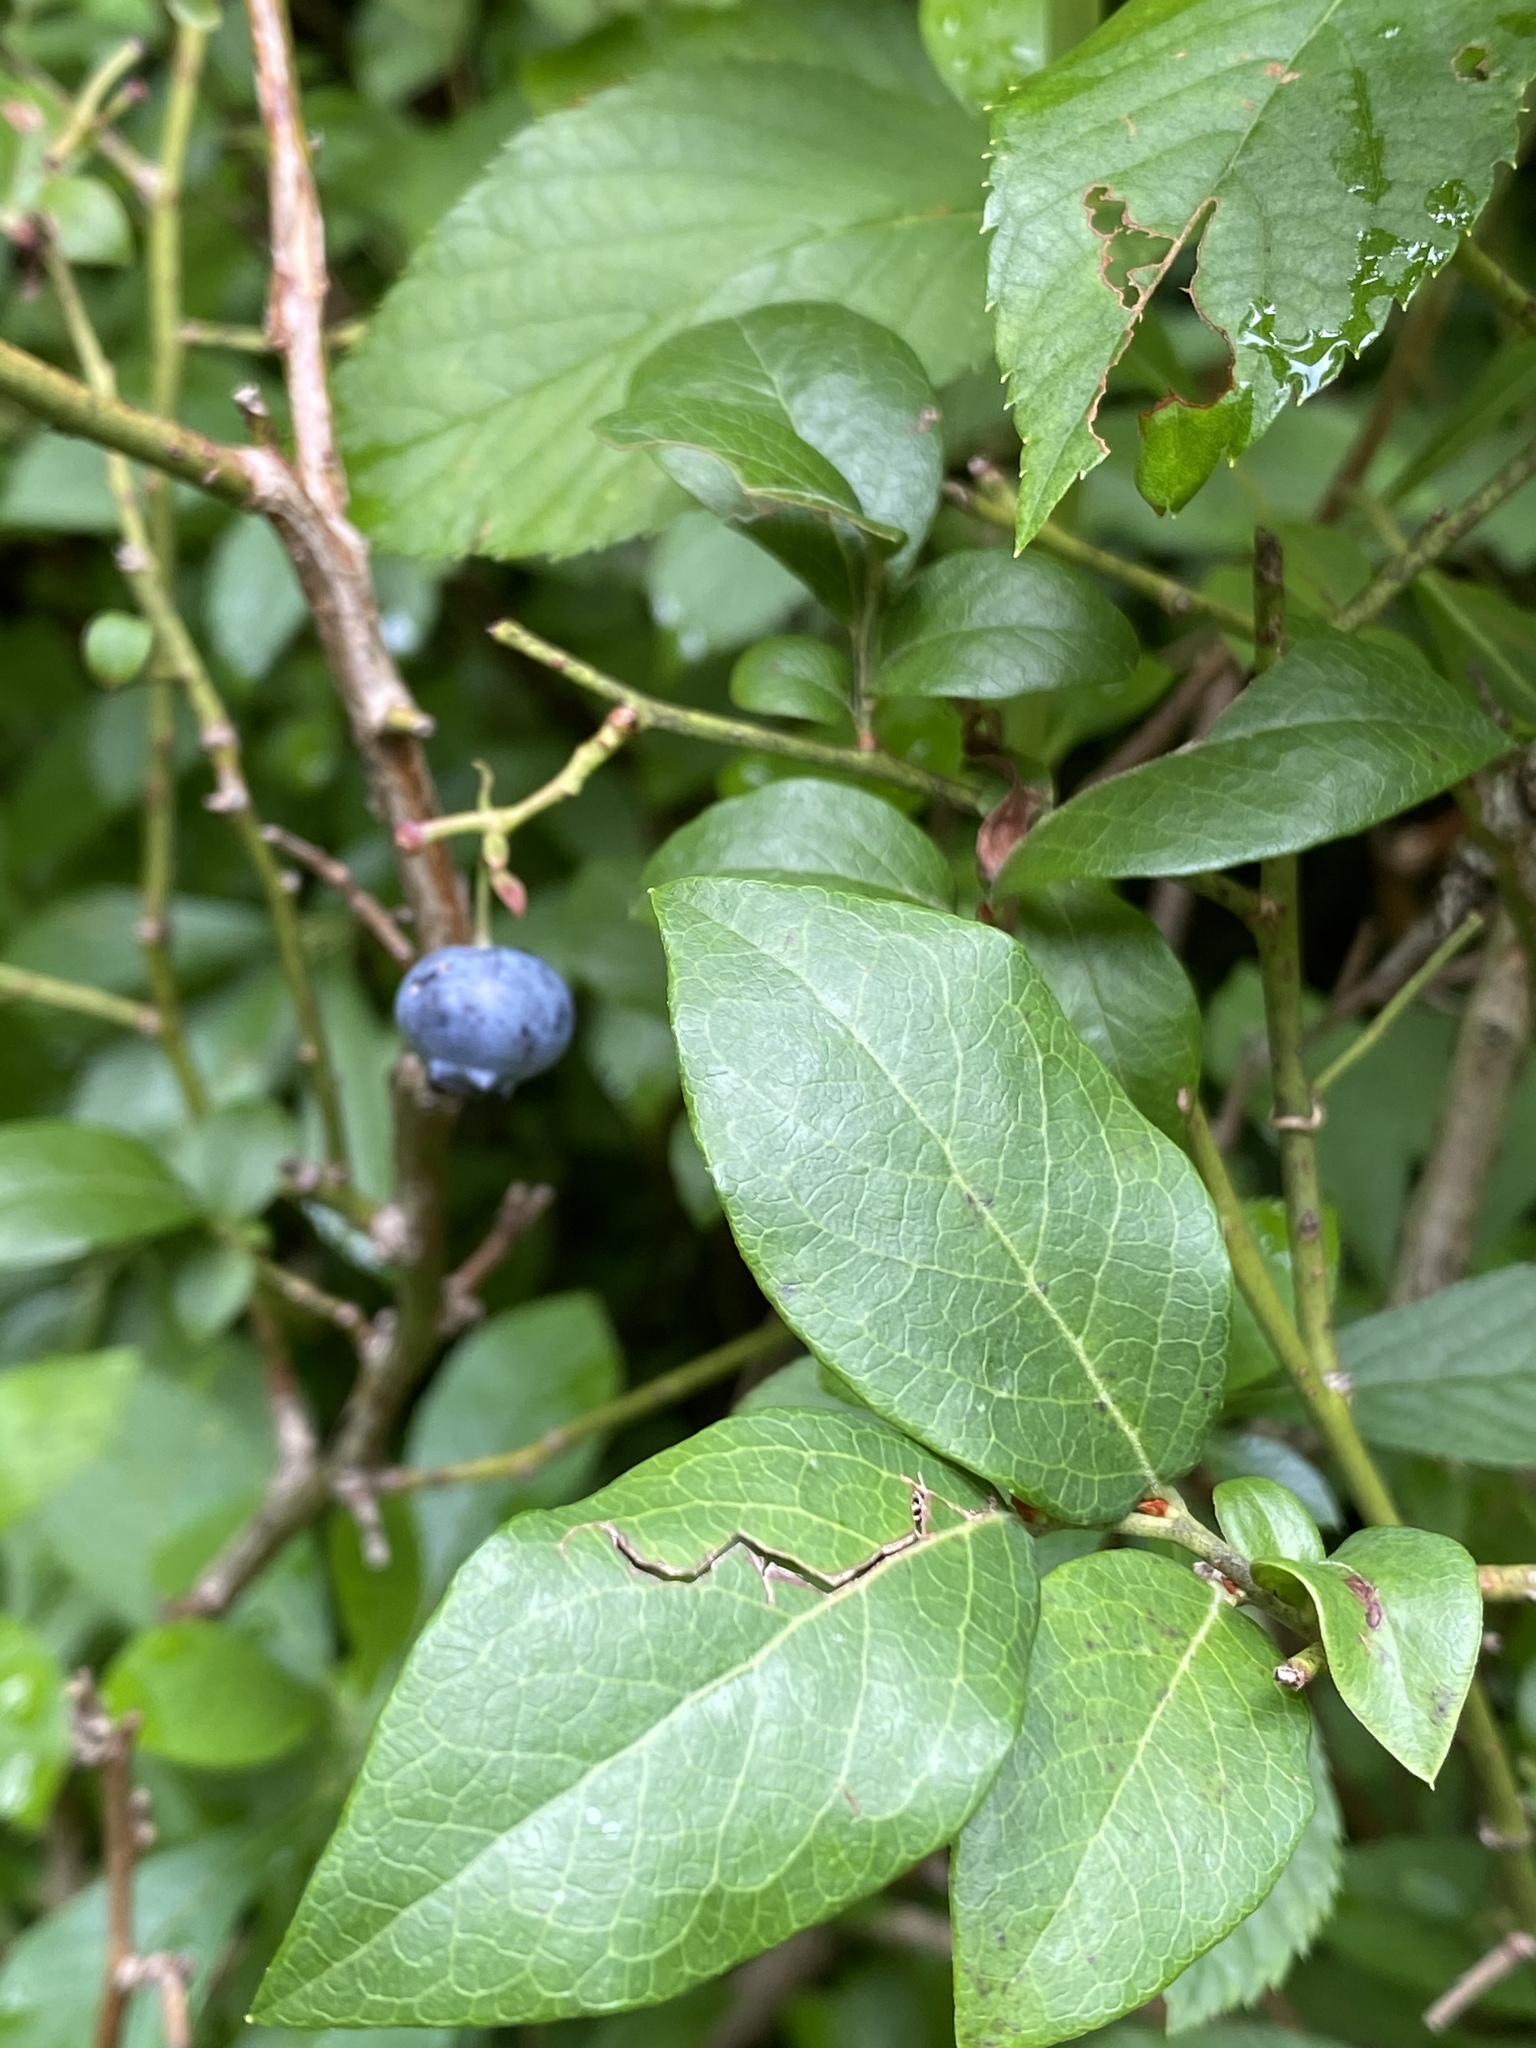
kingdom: Plantae
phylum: Tracheophyta
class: Magnoliopsida
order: Ericales
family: Ericaceae
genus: Vaccinium
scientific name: Vaccinium corymbosum
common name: Blueberry
